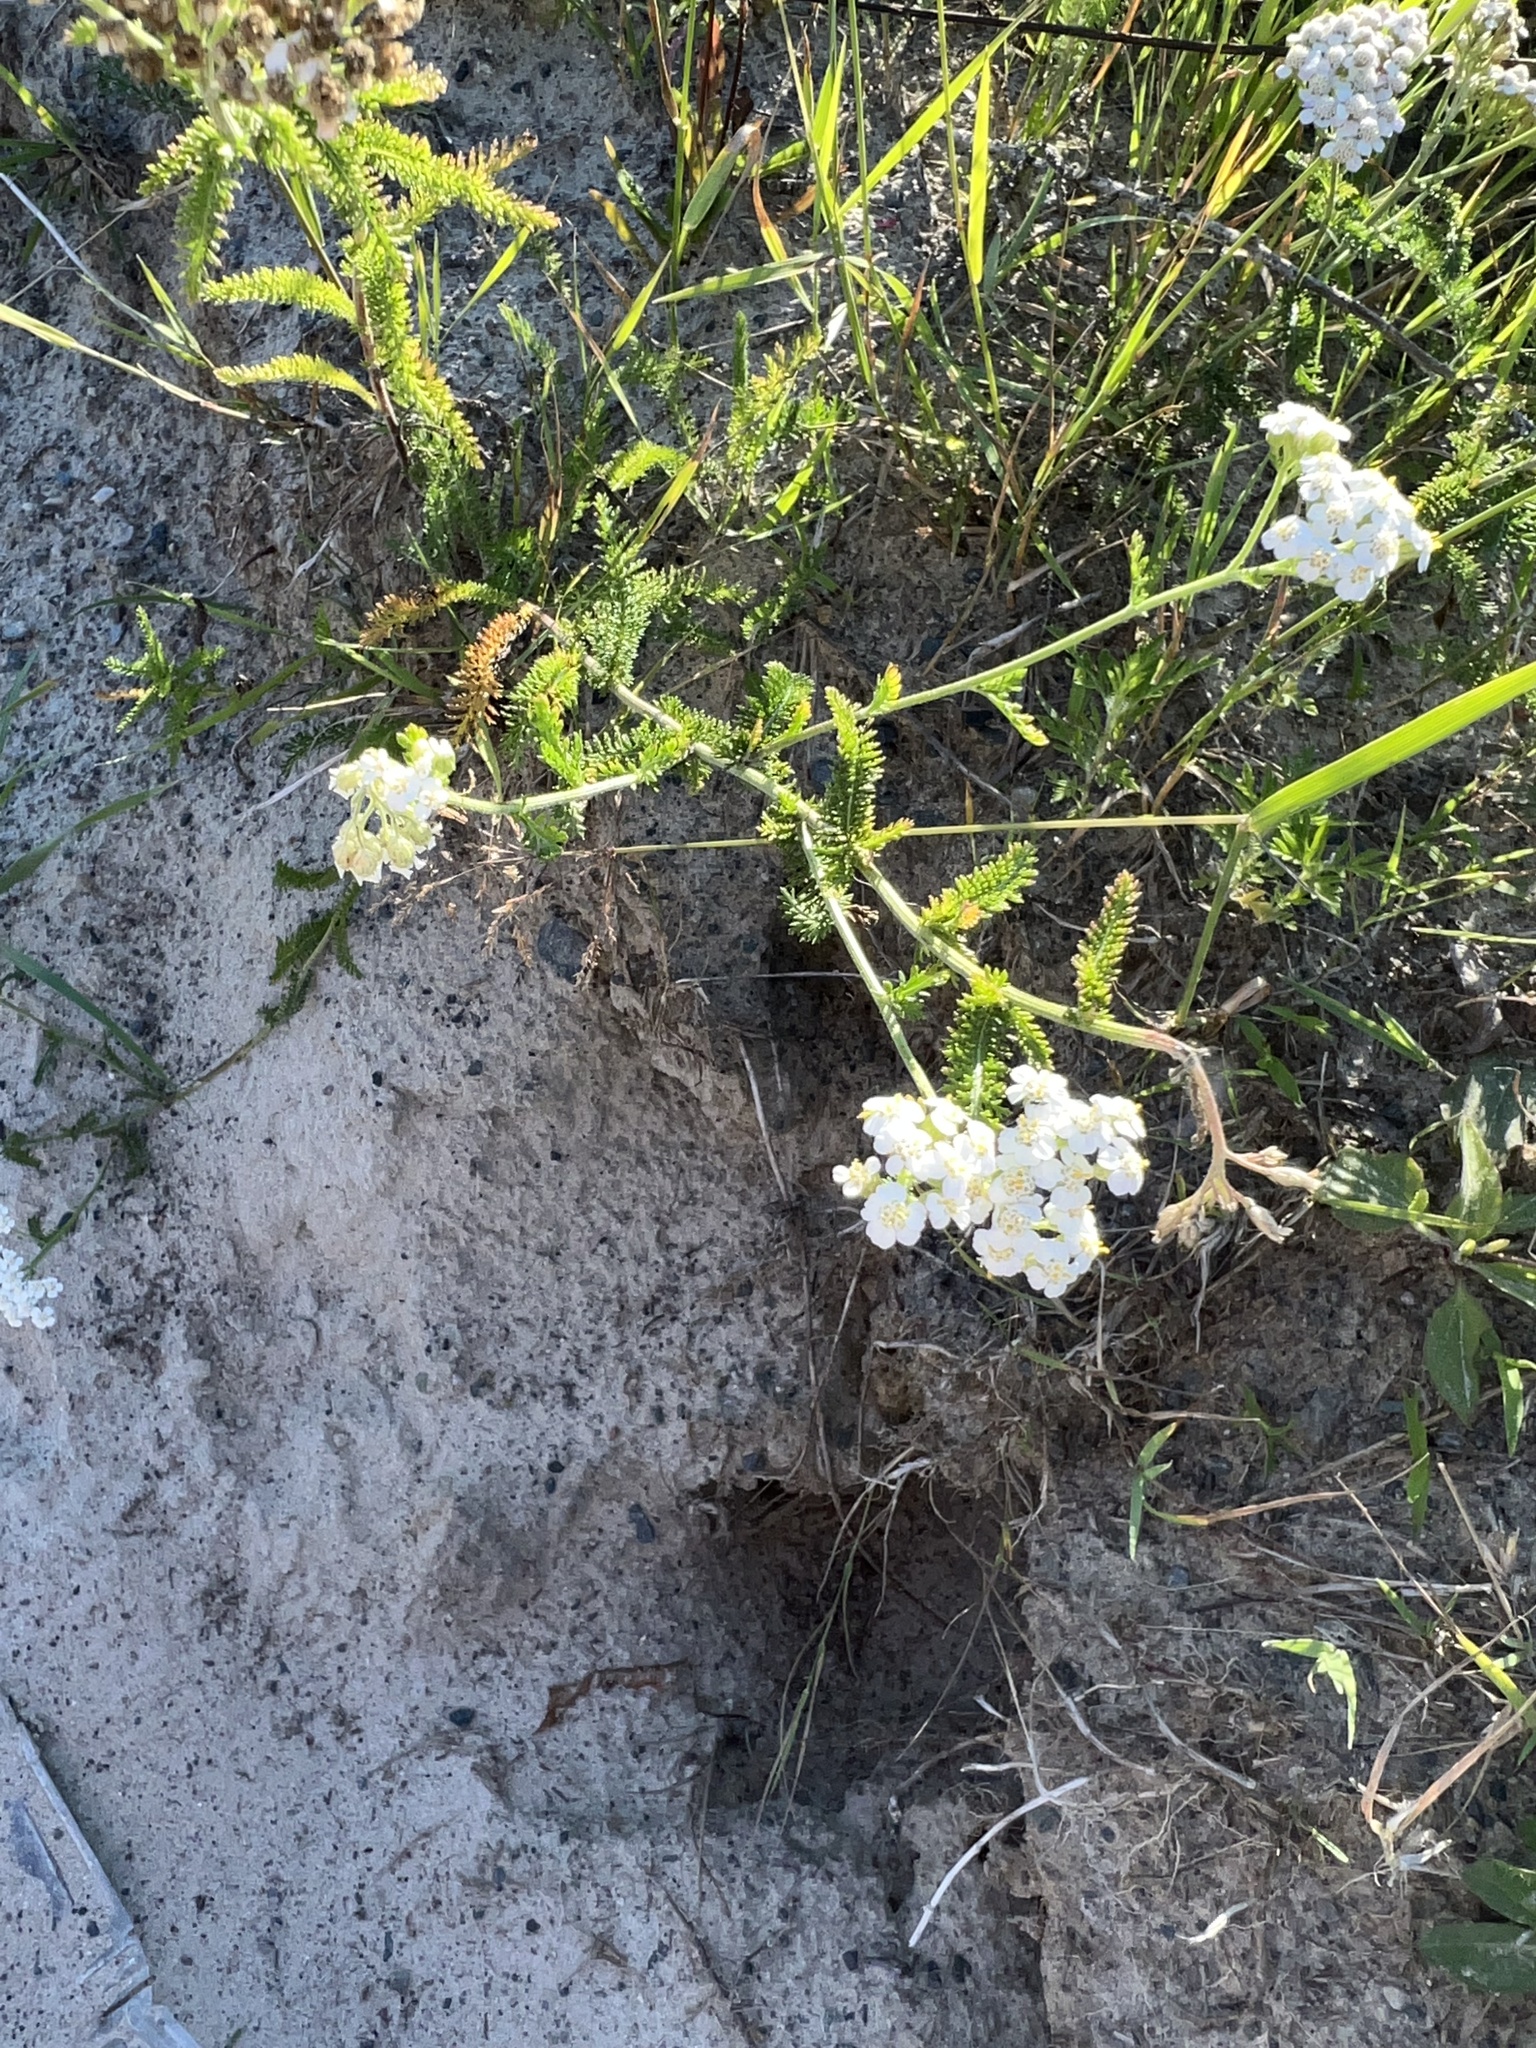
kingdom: Plantae
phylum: Tracheophyta
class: Magnoliopsida
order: Asterales
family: Asteraceae
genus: Achillea
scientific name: Achillea millefolium
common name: Yarrow
